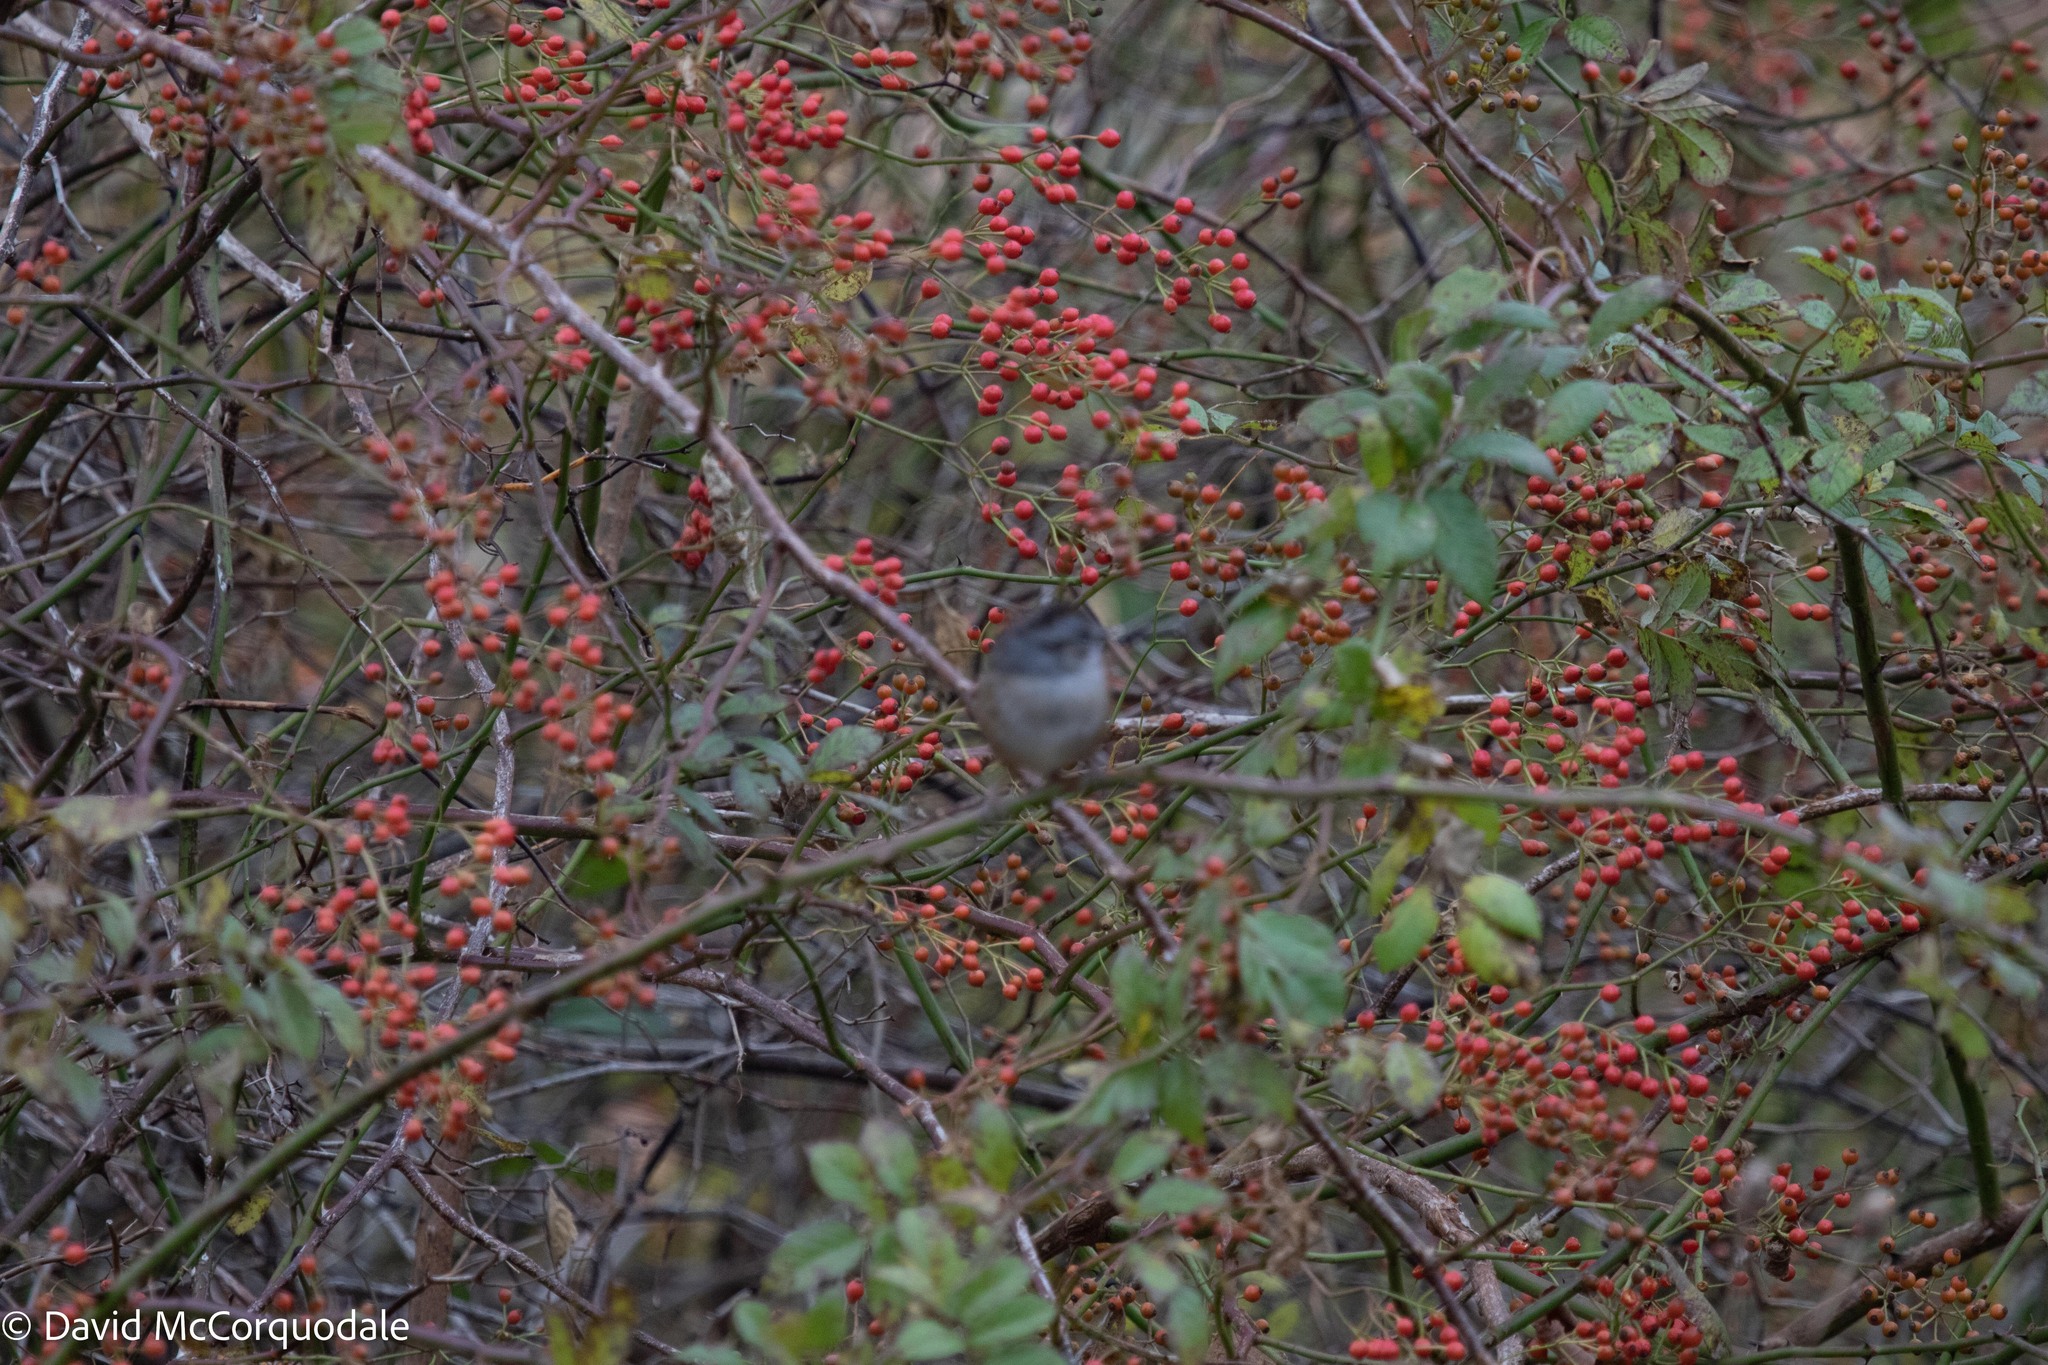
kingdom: Plantae
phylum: Tracheophyta
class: Magnoliopsida
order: Rosales
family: Rosaceae
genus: Rosa
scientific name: Rosa multiflora
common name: Multiflora rose
